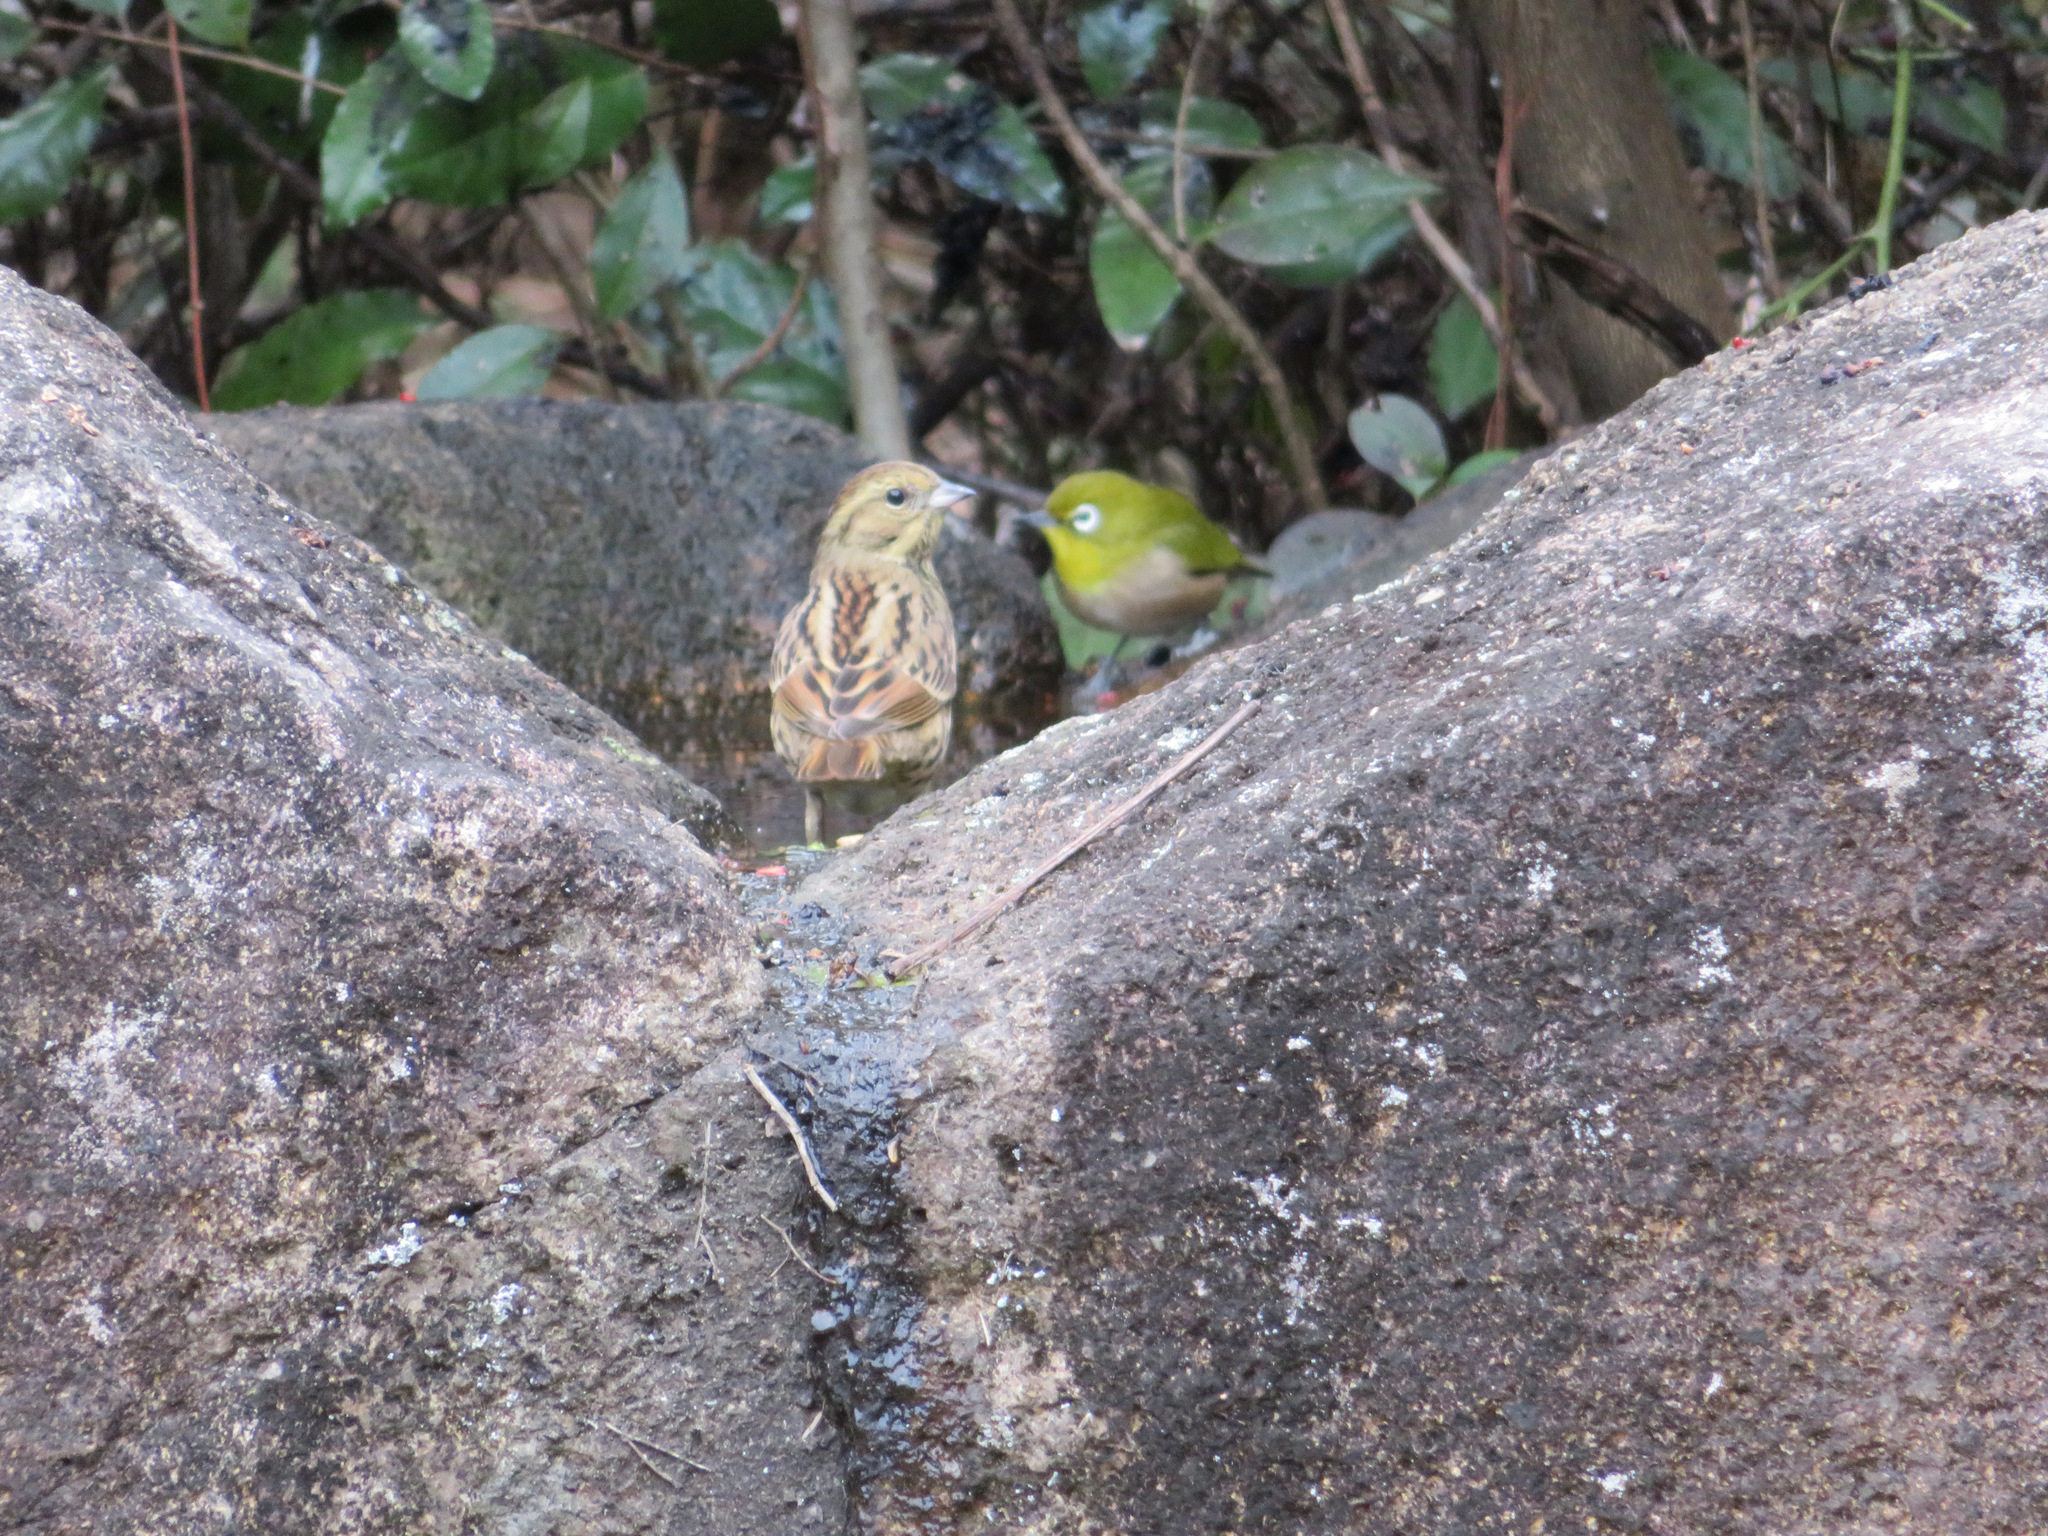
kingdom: Animalia
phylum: Chordata
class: Aves
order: Passeriformes
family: Emberizidae
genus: Emberiza
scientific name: Emberiza personata
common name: Masked bunting
